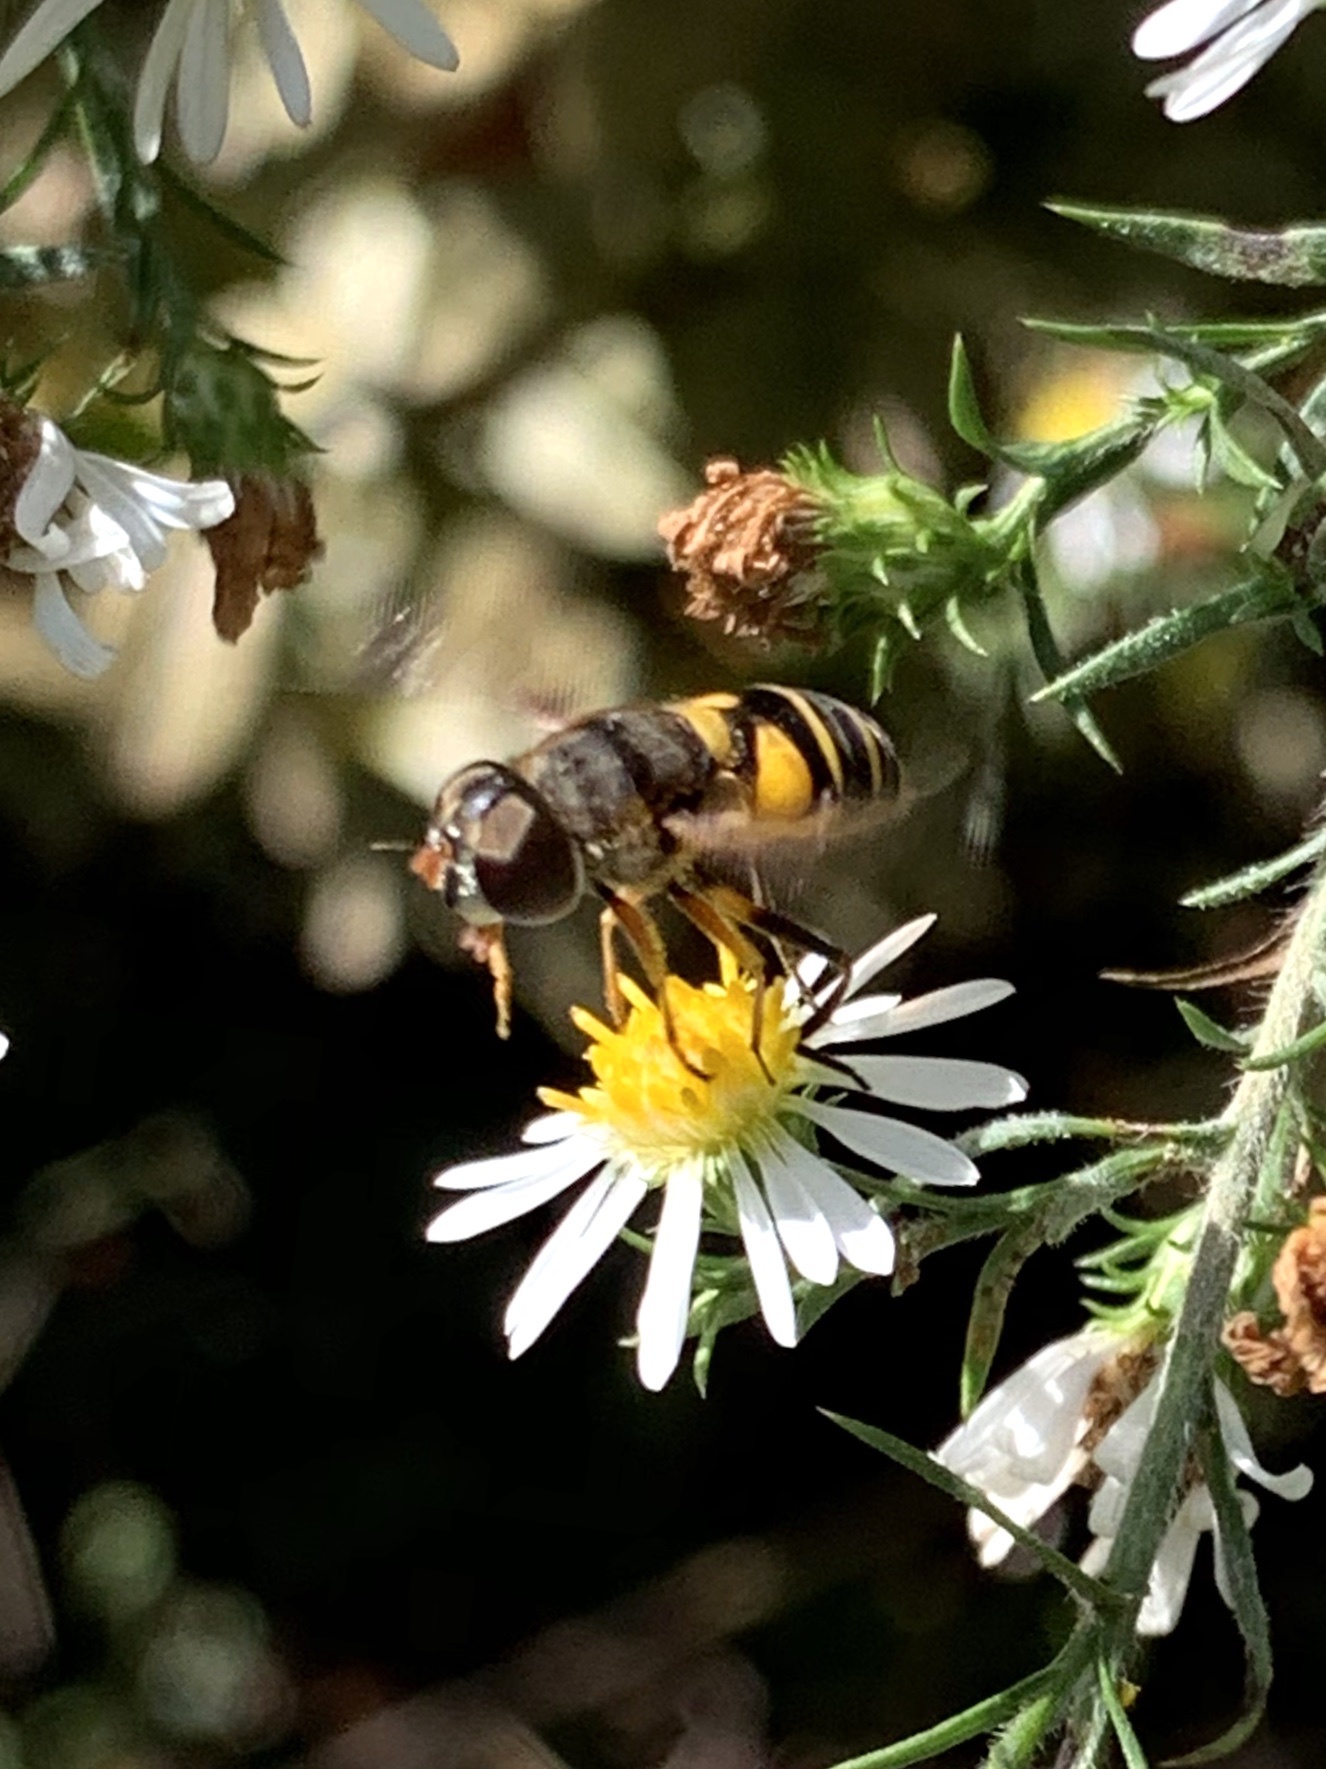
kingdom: Animalia
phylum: Arthropoda
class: Insecta
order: Diptera
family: Syrphidae
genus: Eristalis
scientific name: Eristalis transversa
